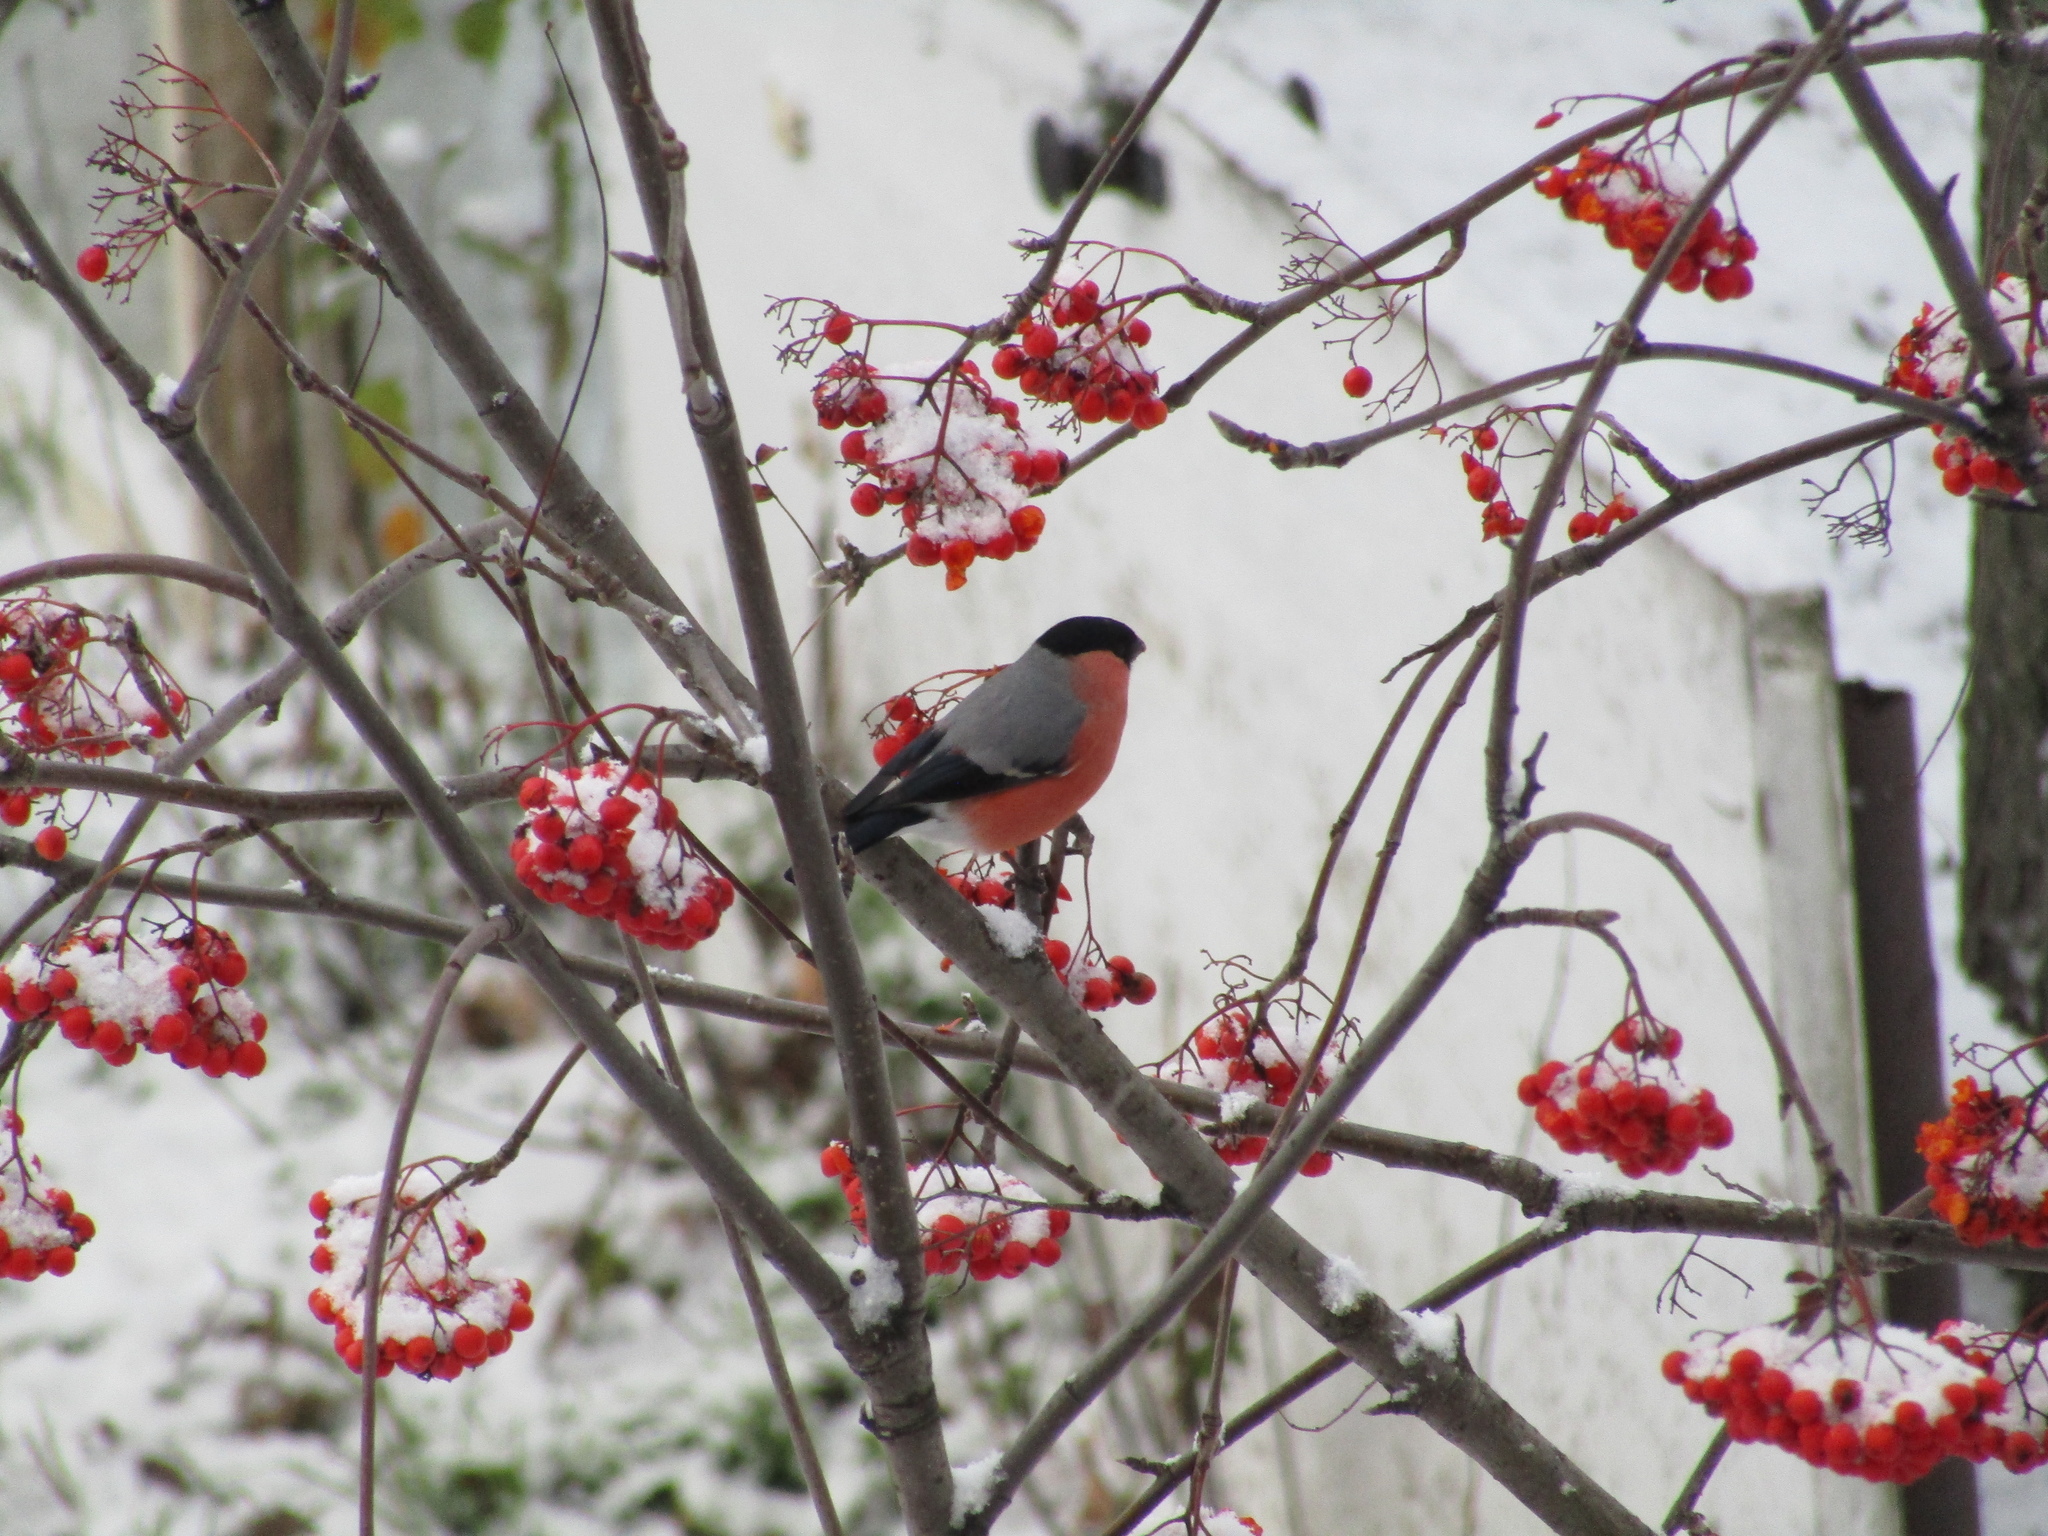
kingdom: Animalia
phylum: Chordata
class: Aves
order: Passeriformes
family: Fringillidae
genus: Pyrrhula
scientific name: Pyrrhula pyrrhula
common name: Eurasian bullfinch
